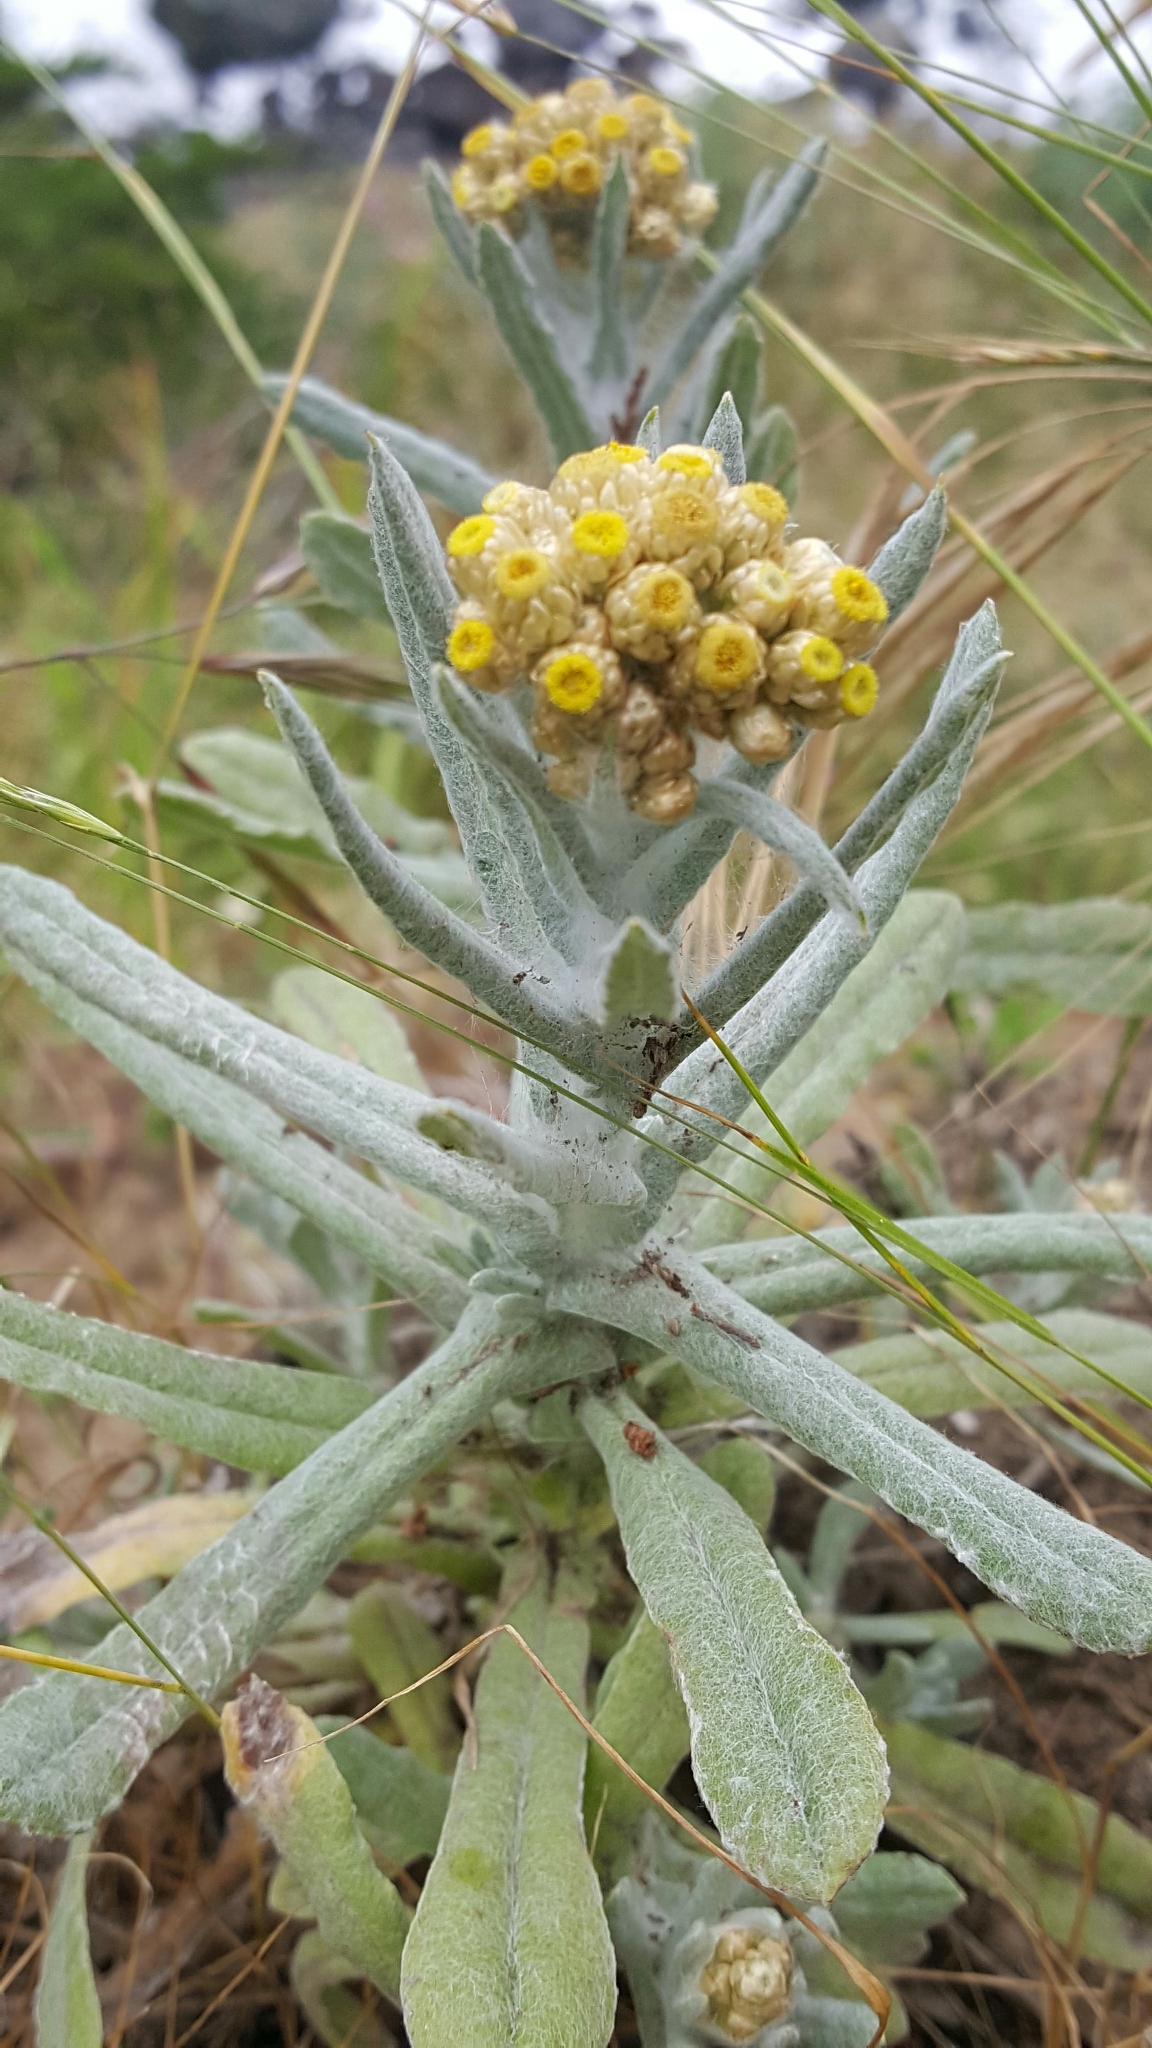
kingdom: Plantae
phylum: Tracheophyta
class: Magnoliopsida
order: Asterales
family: Asteraceae
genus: Pseudognaphalium
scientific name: Pseudognaphalium stramineum
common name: Cotton-batting-plant
